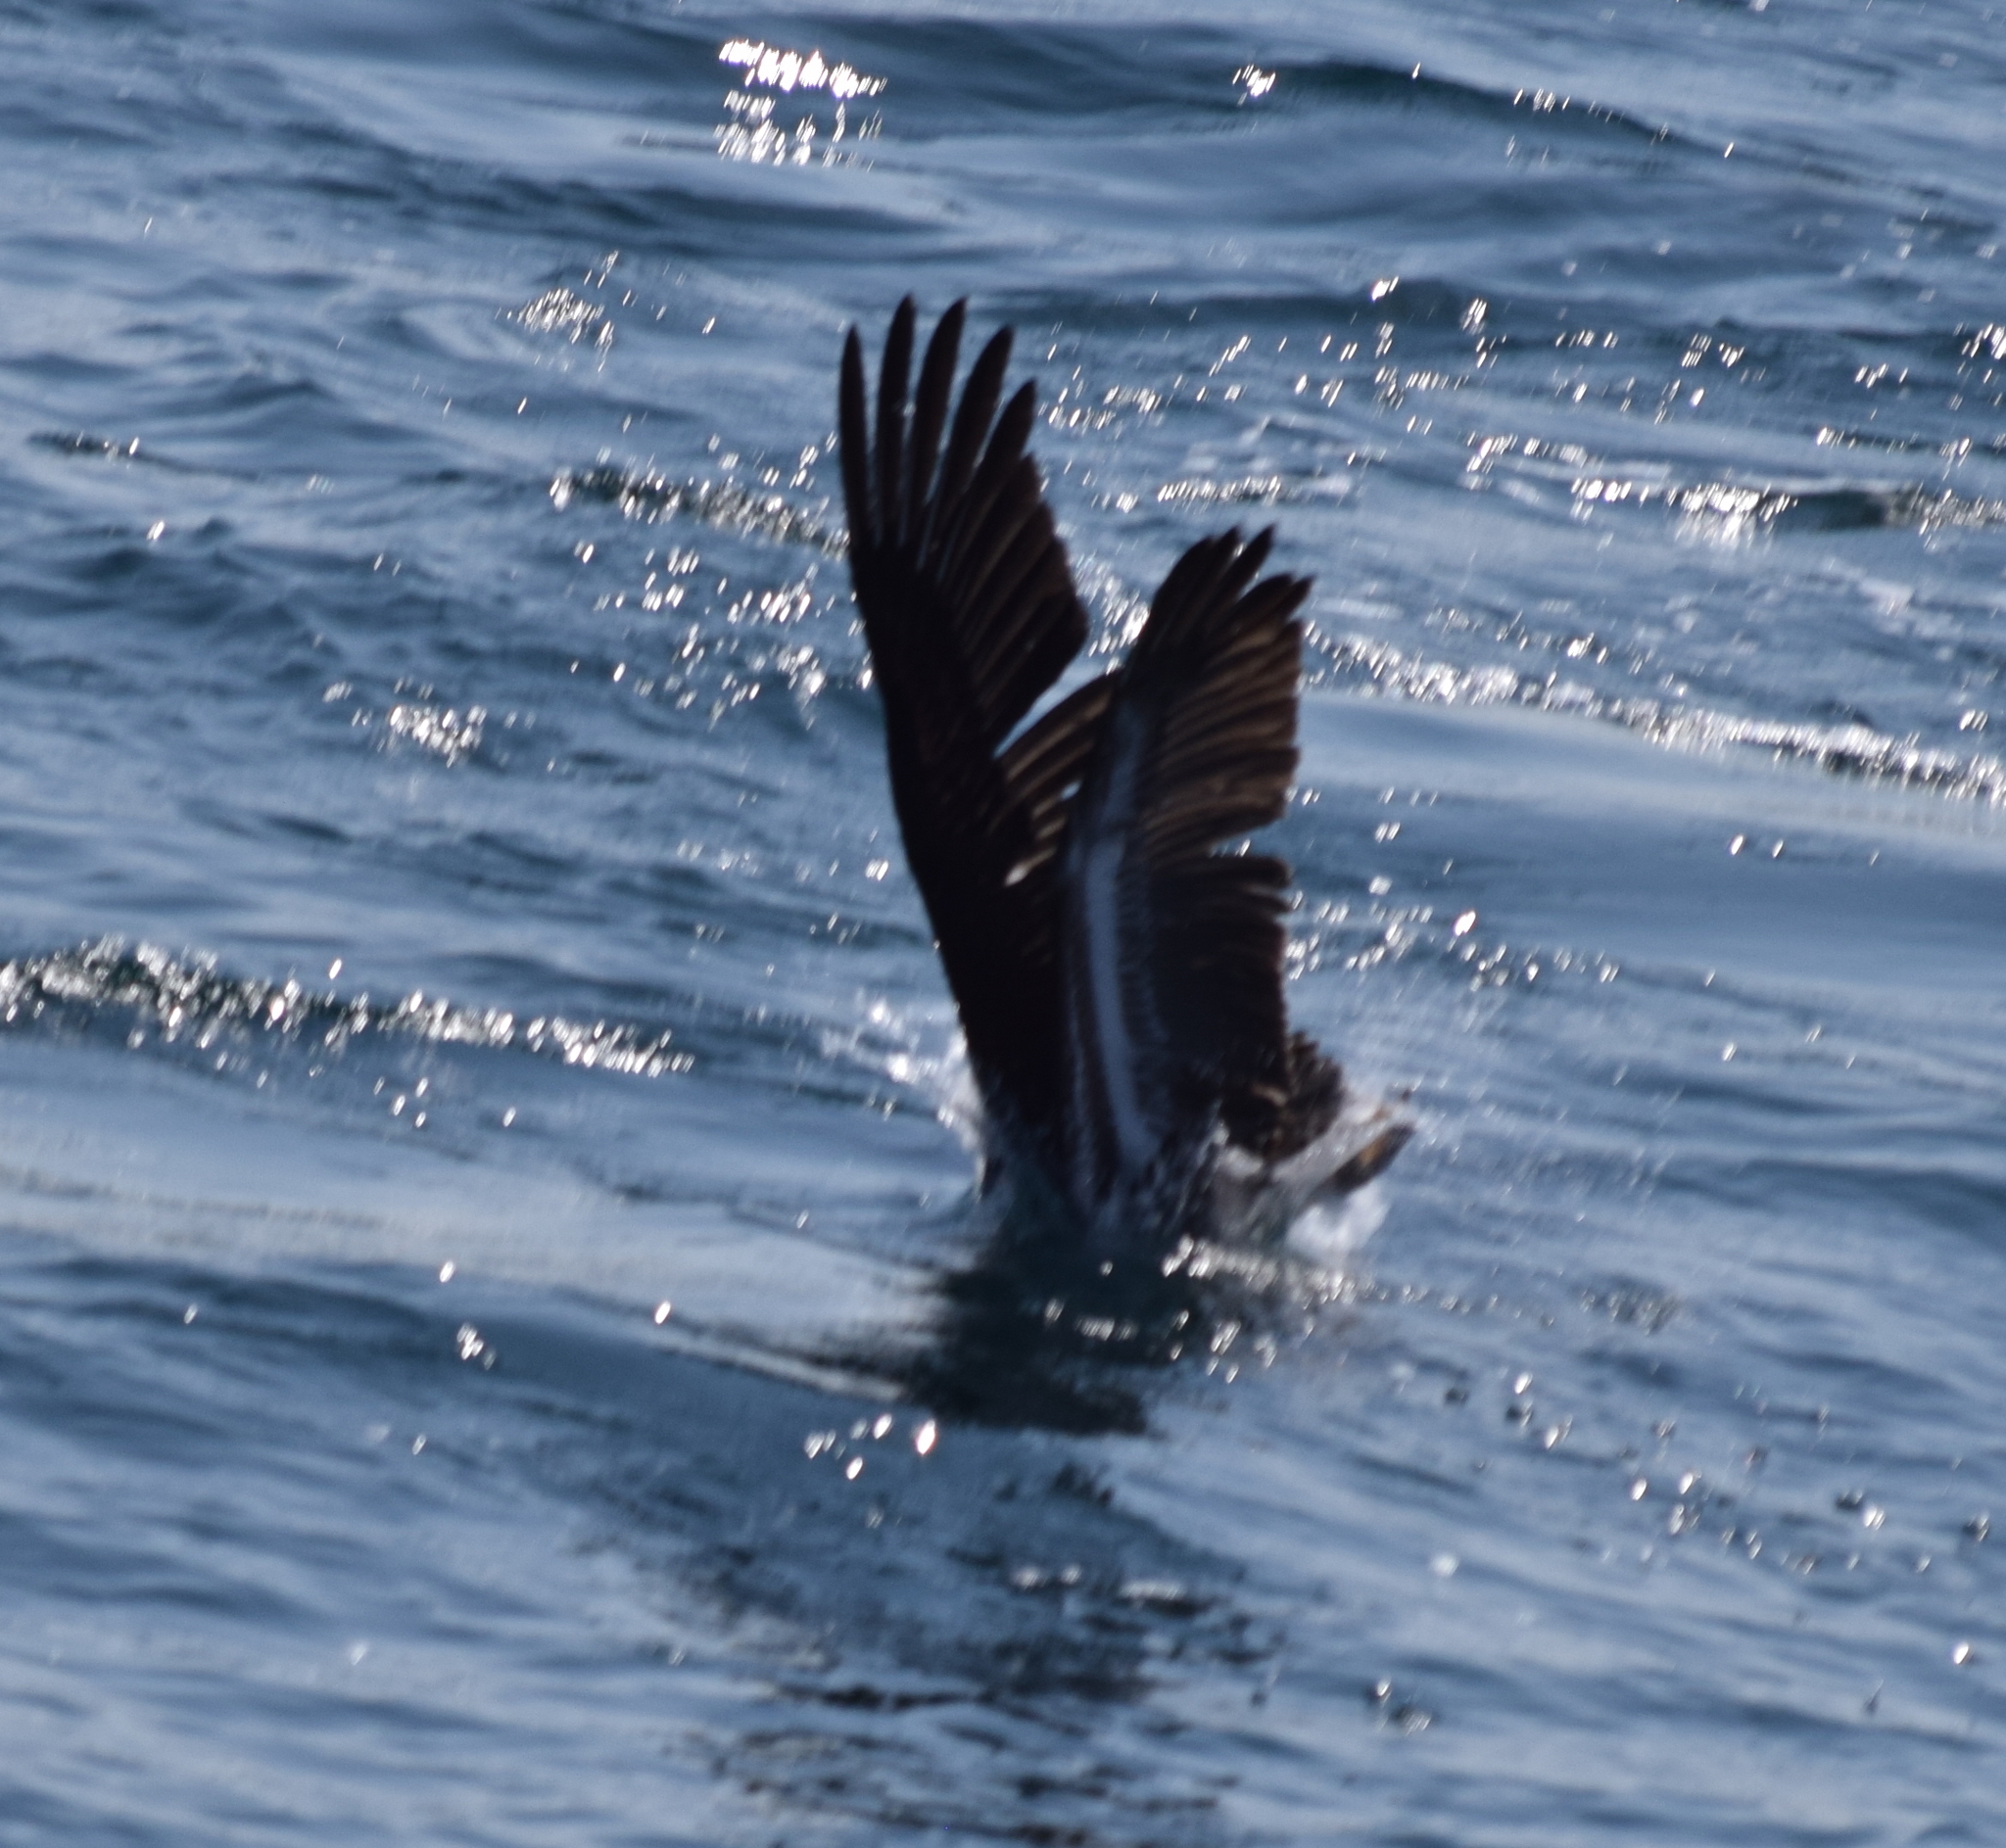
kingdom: Animalia
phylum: Chordata
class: Aves
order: Pelecaniformes
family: Pelecanidae
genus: Pelecanus
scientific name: Pelecanus occidentalis
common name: Brown pelican
